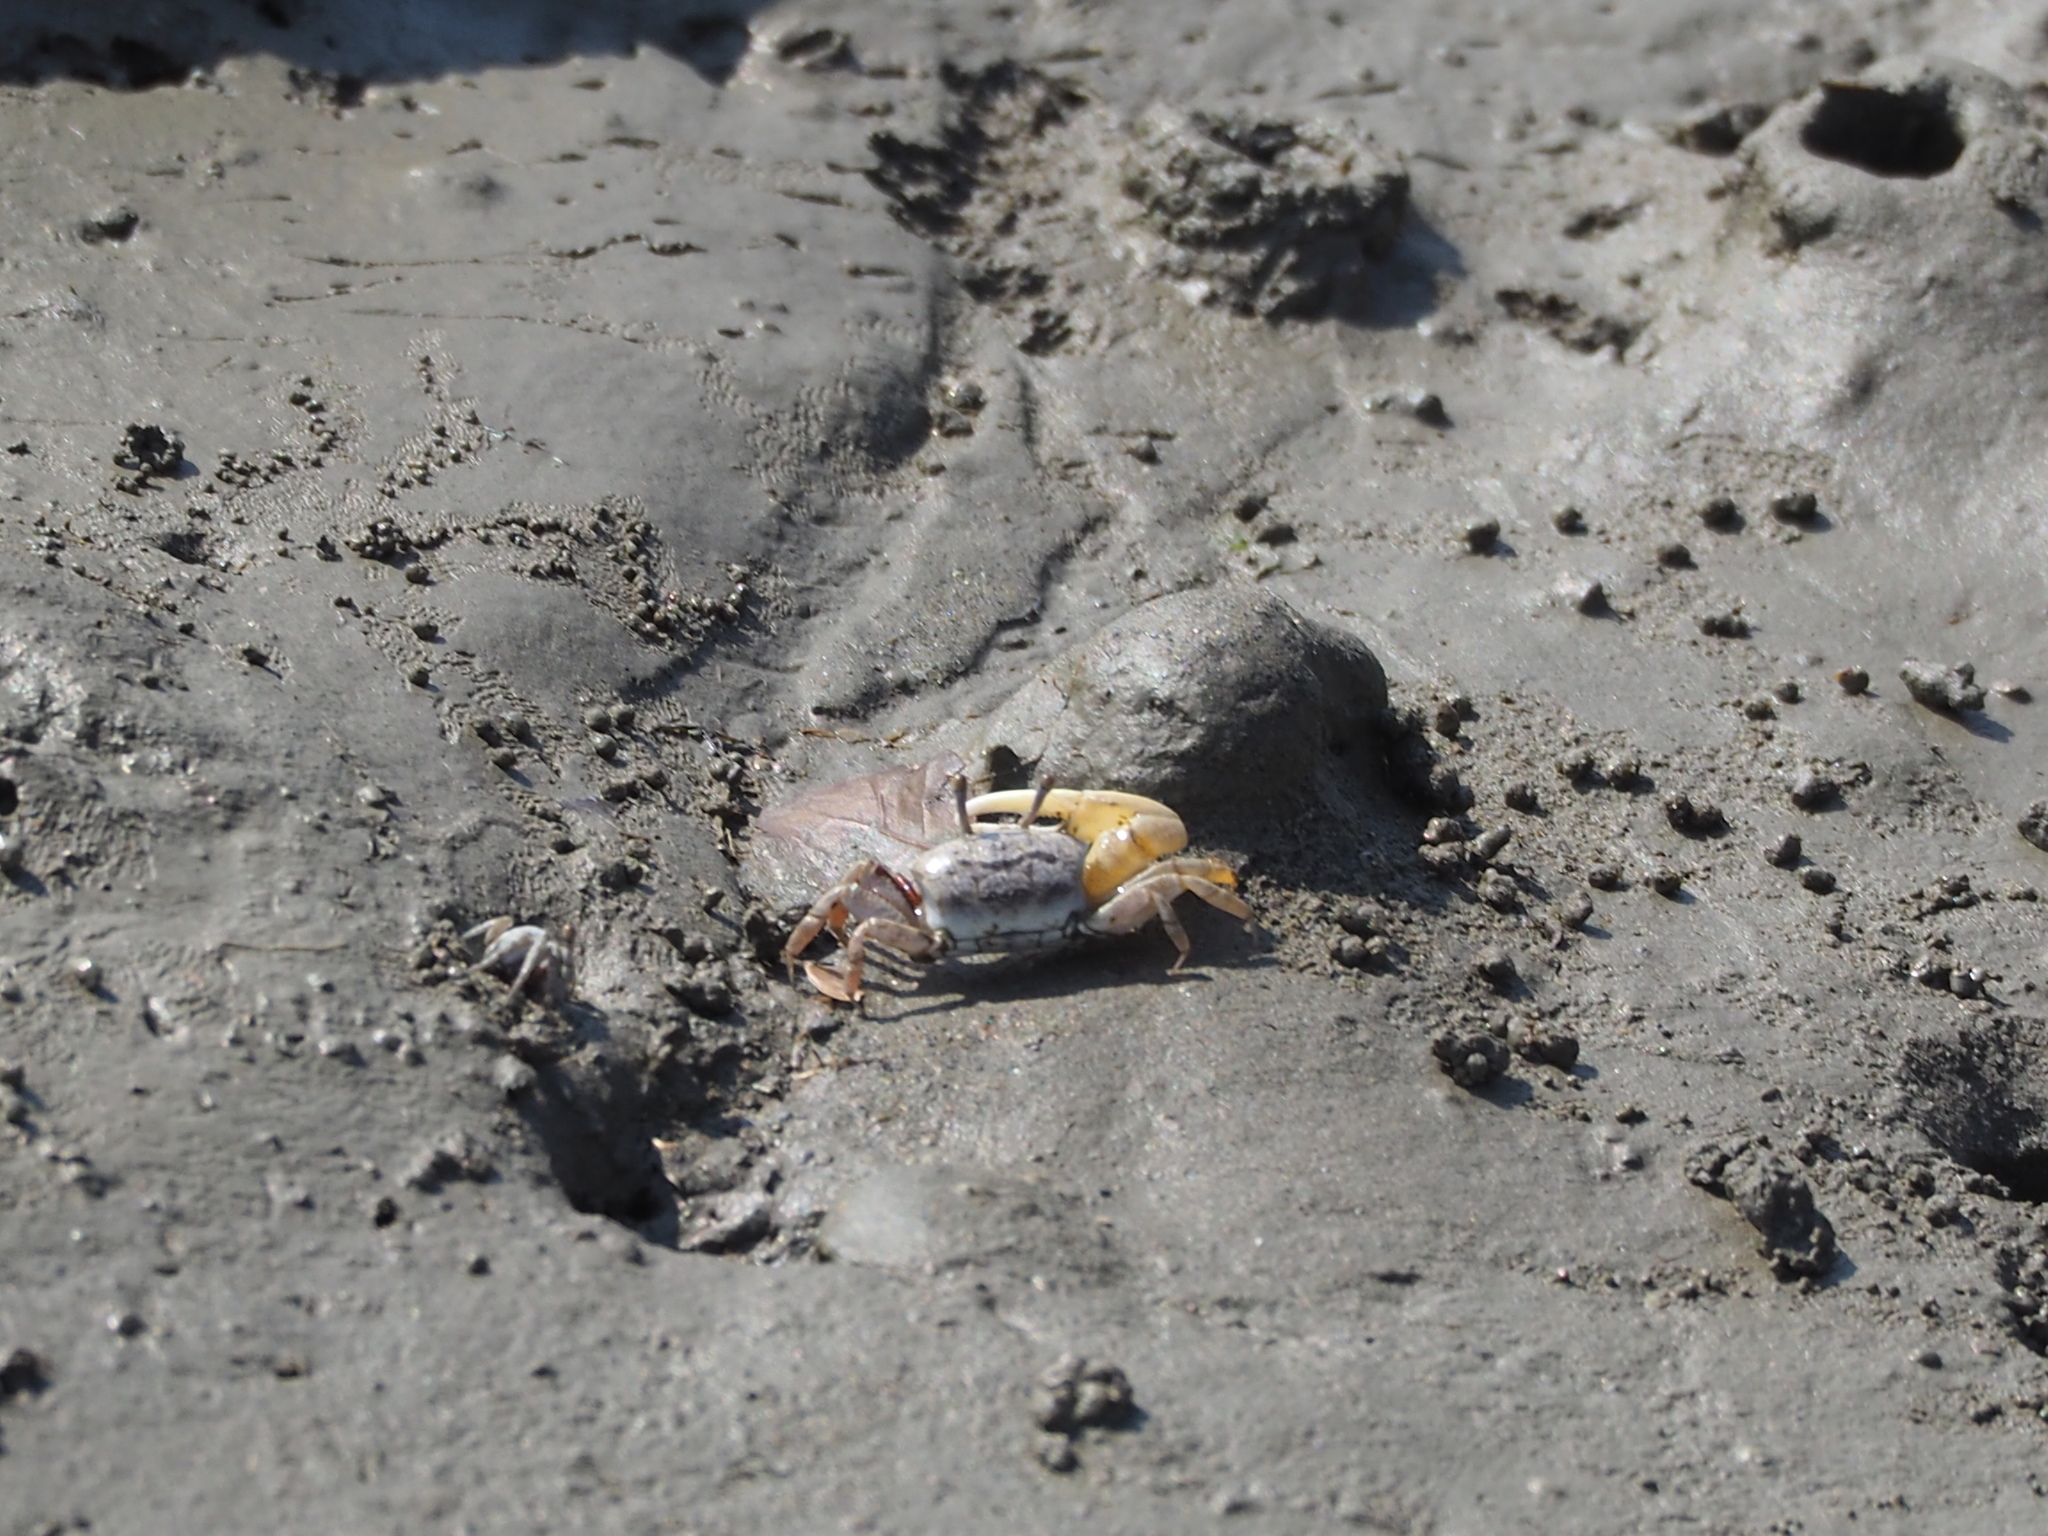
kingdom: Animalia
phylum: Arthropoda
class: Malacostraca
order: Decapoda
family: Ocypodidae
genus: Austruca
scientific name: Austruca lactea
